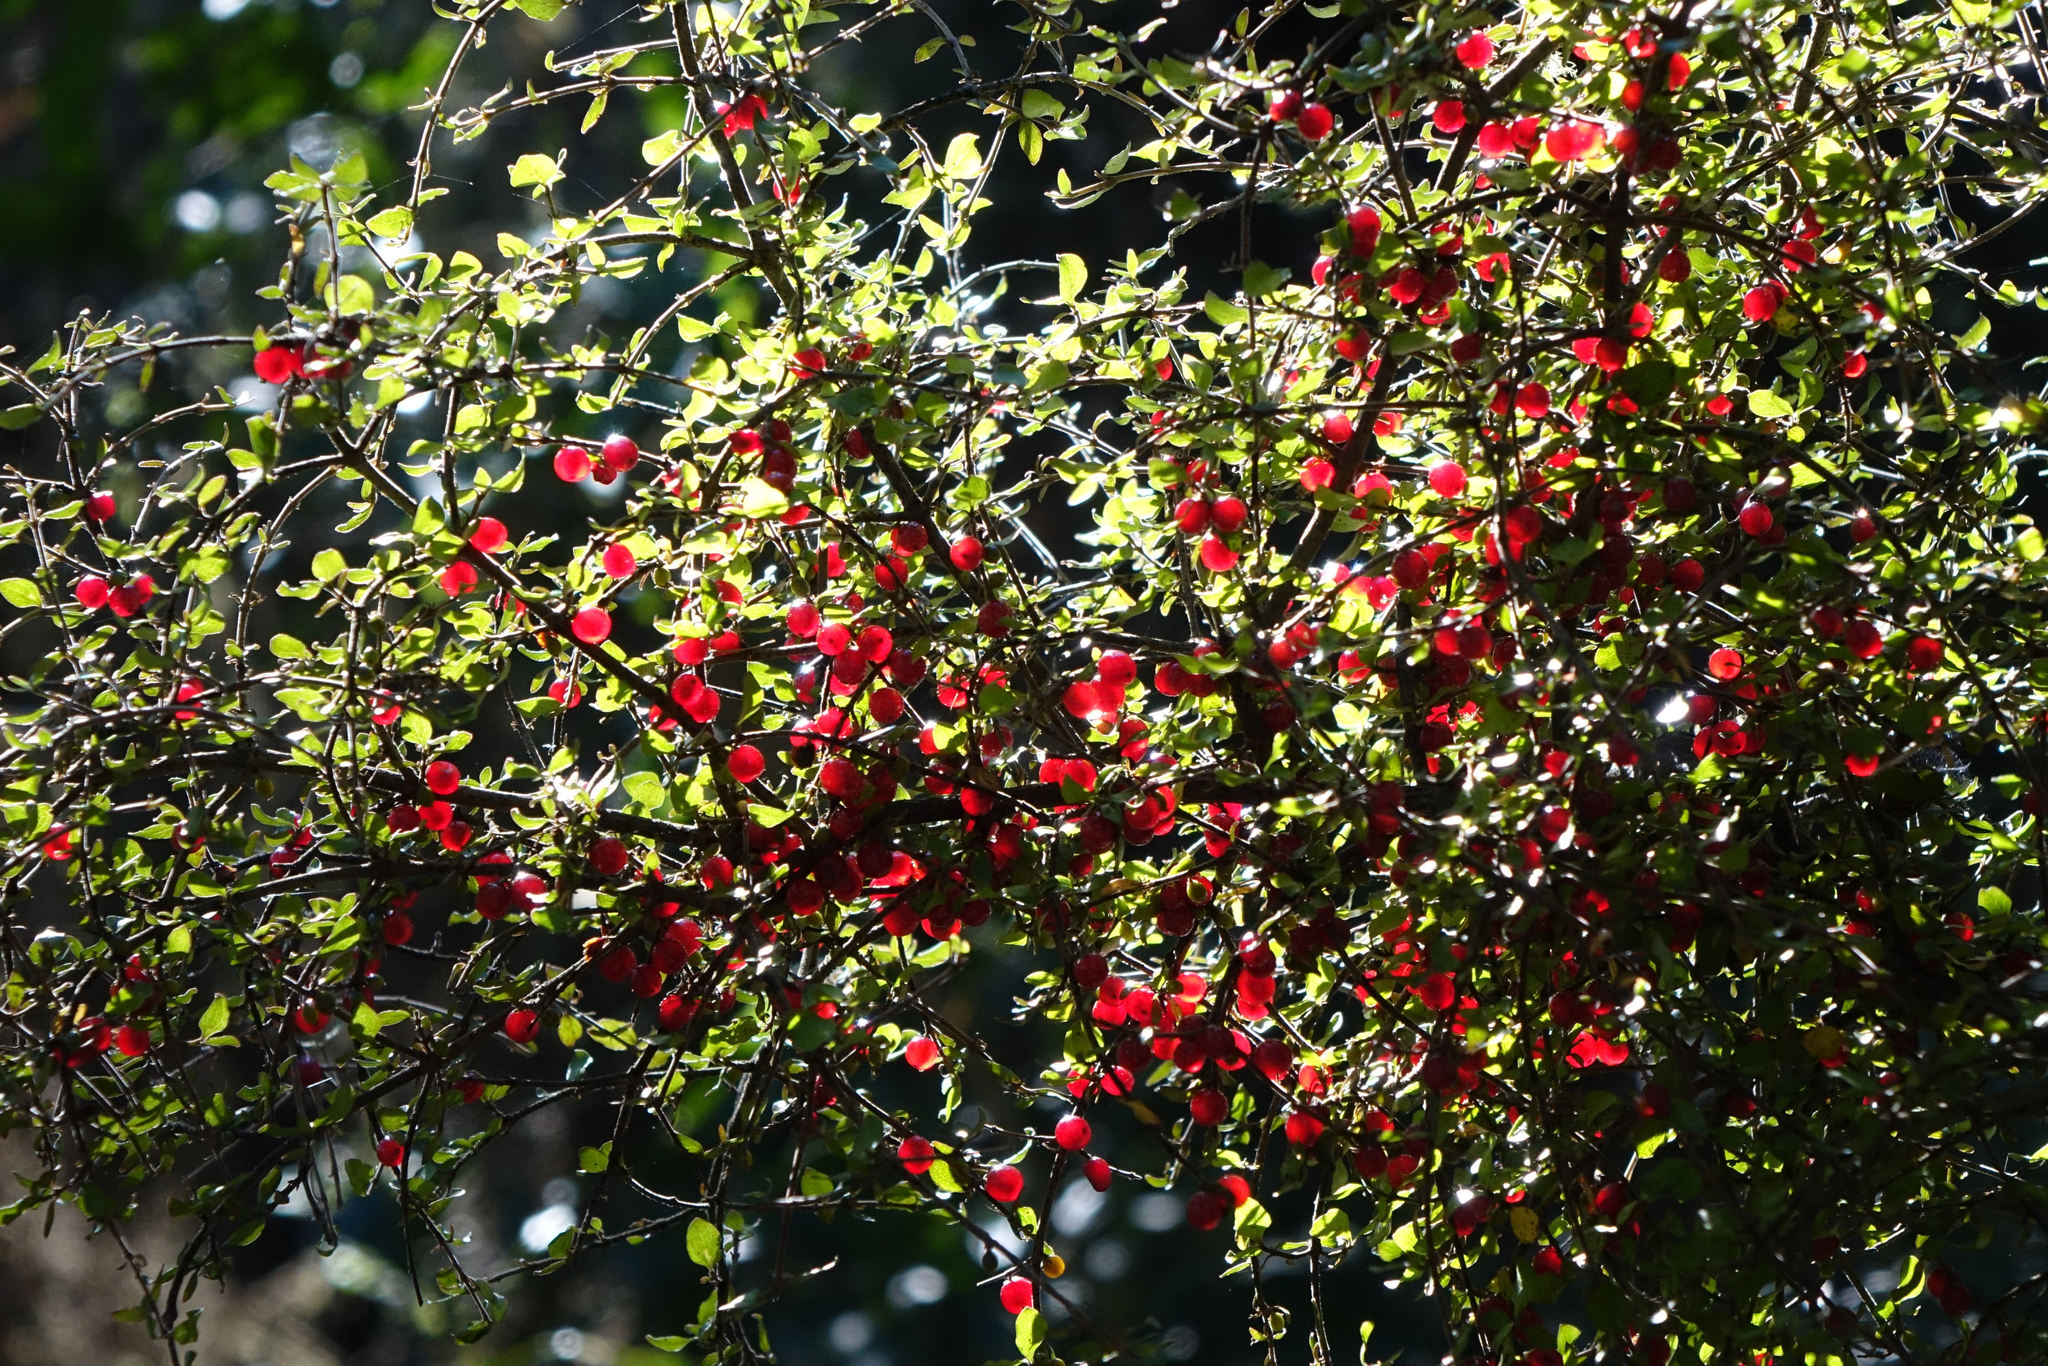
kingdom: Plantae
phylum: Tracheophyta
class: Magnoliopsida
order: Gentianales
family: Rubiaceae
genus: Coprosma
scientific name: Coprosma rhamnoides
